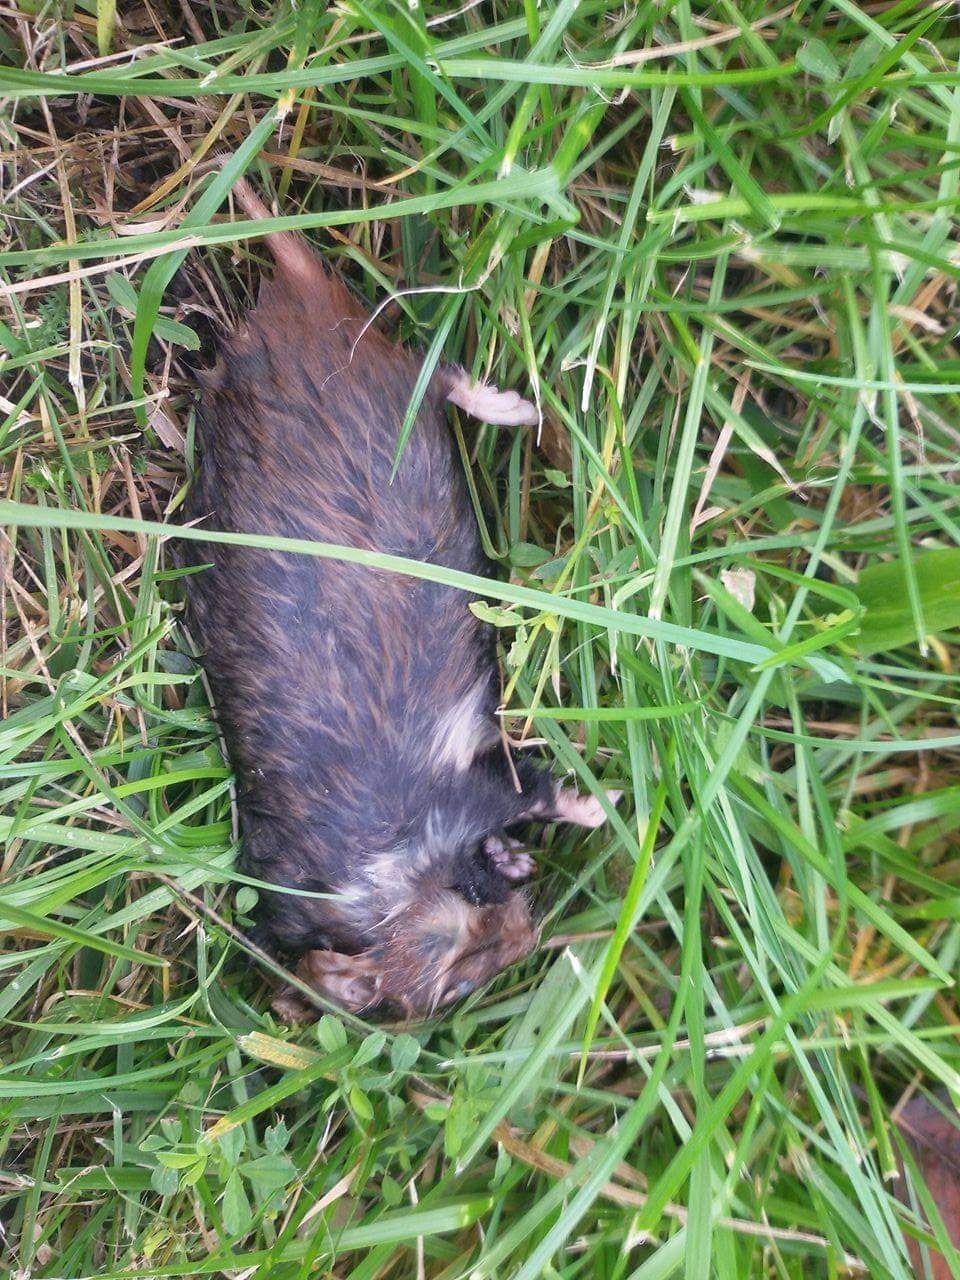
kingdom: Animalia
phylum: Chordata
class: Mammalia
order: Rodentia
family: Cricetidae
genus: Cricetus
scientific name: Cricetus cricetus
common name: Common hamster
